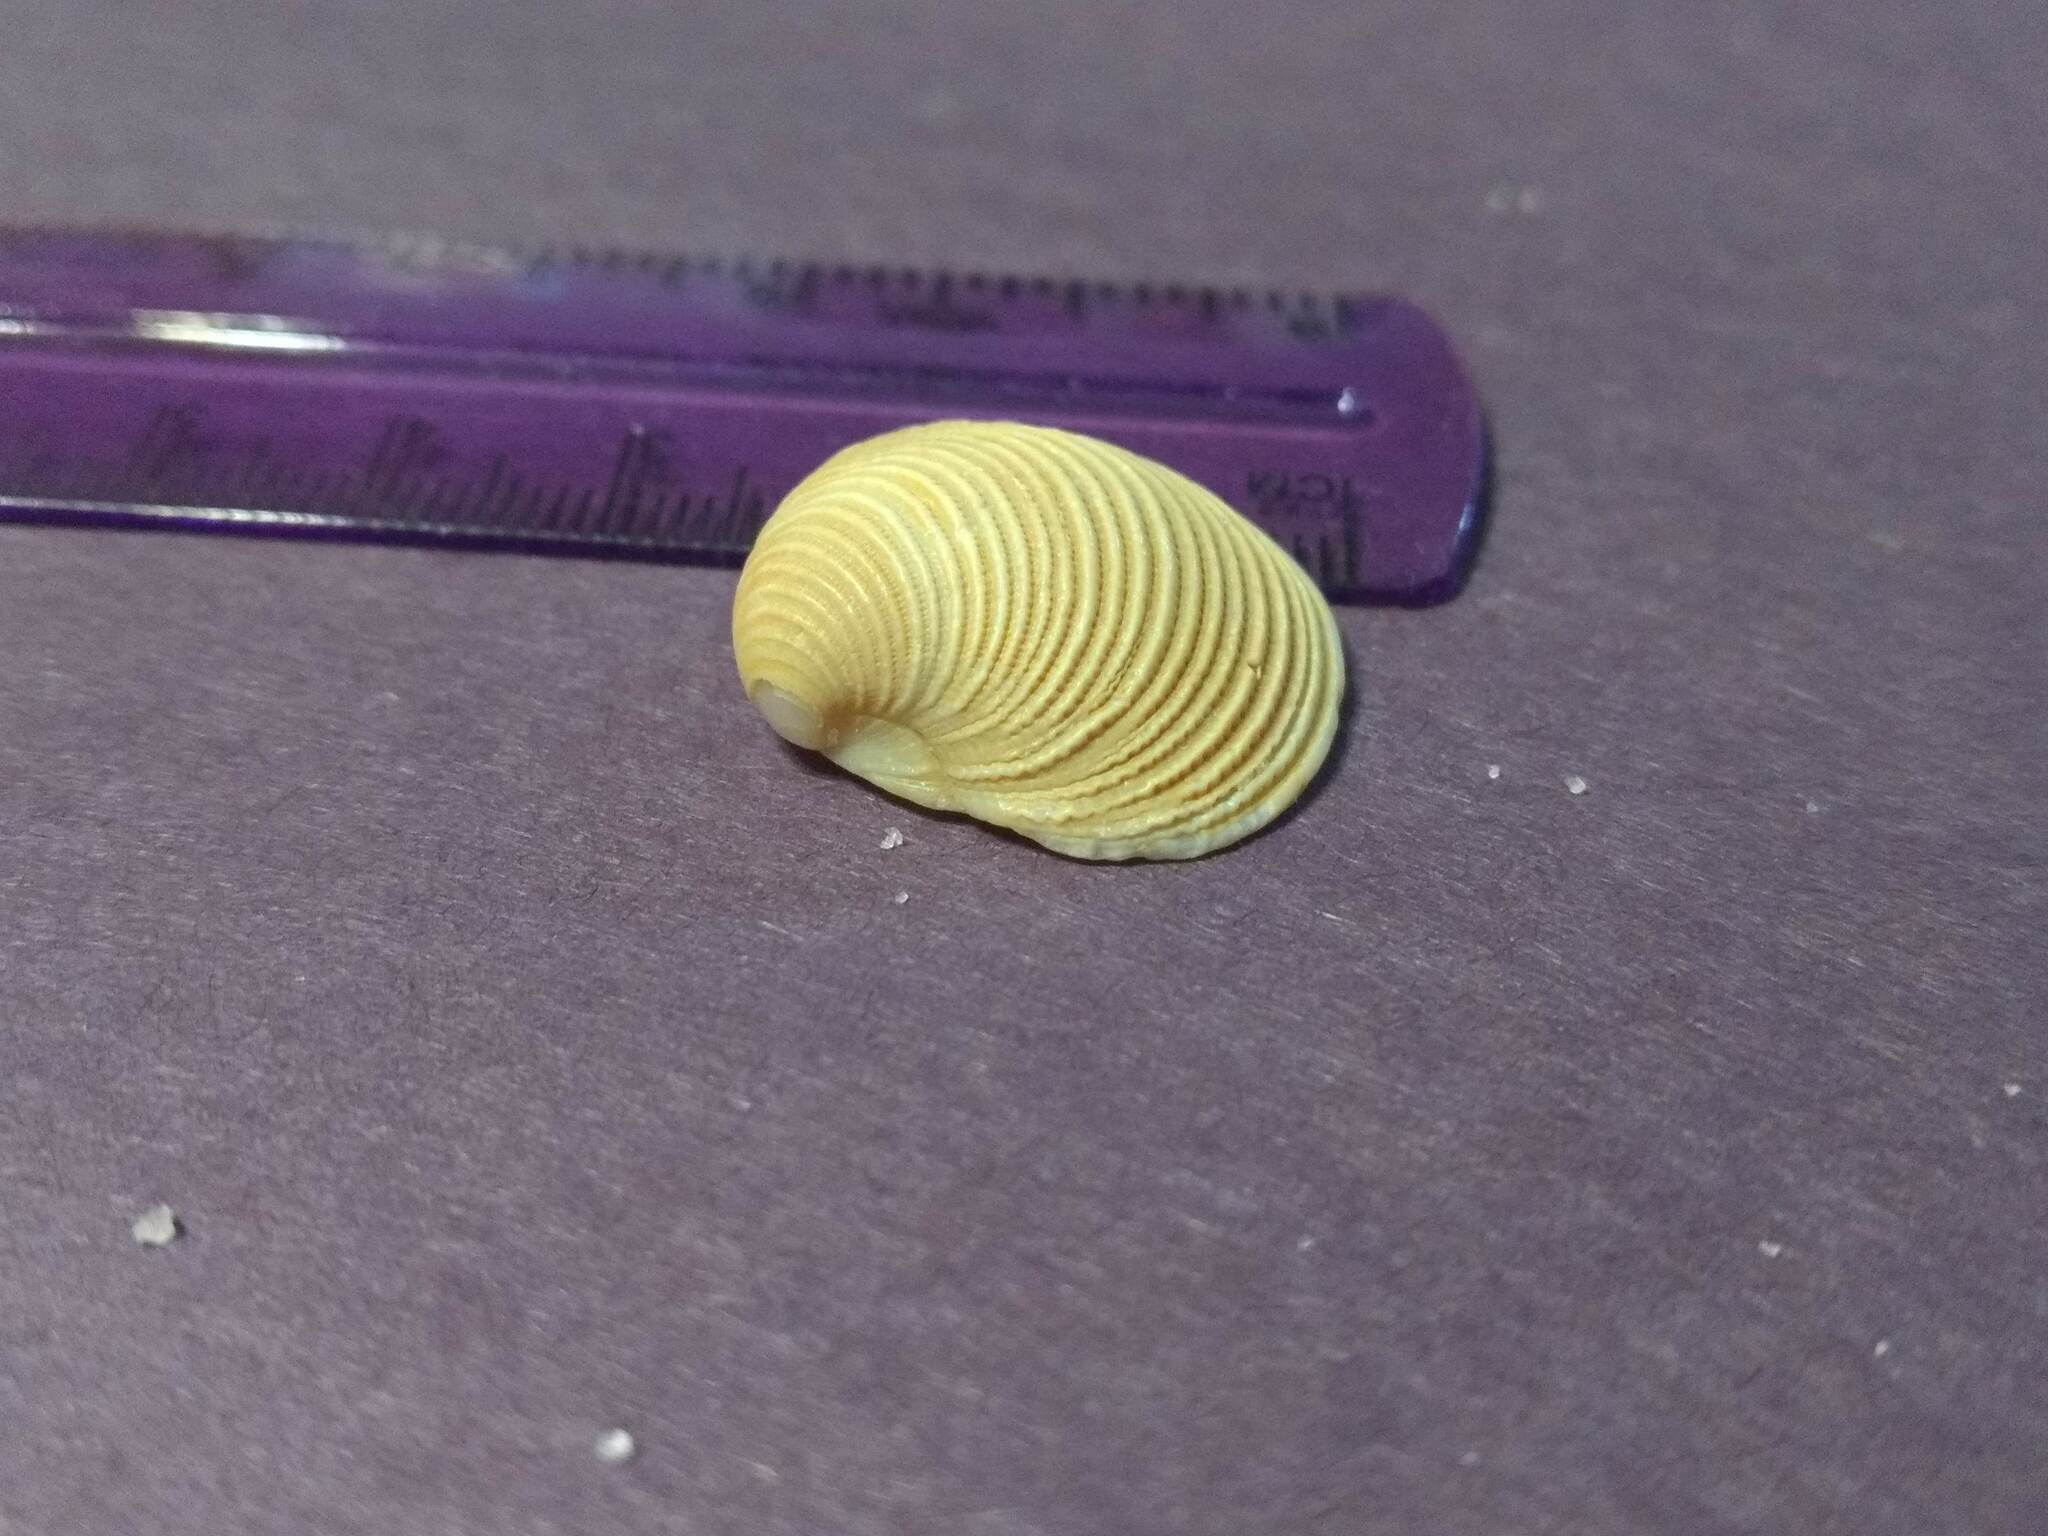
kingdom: Animalia
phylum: Mollusca
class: Bivalvia
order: Venerida
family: Veneridae
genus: Chionopsis
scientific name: Chionopsis intapurpurea
